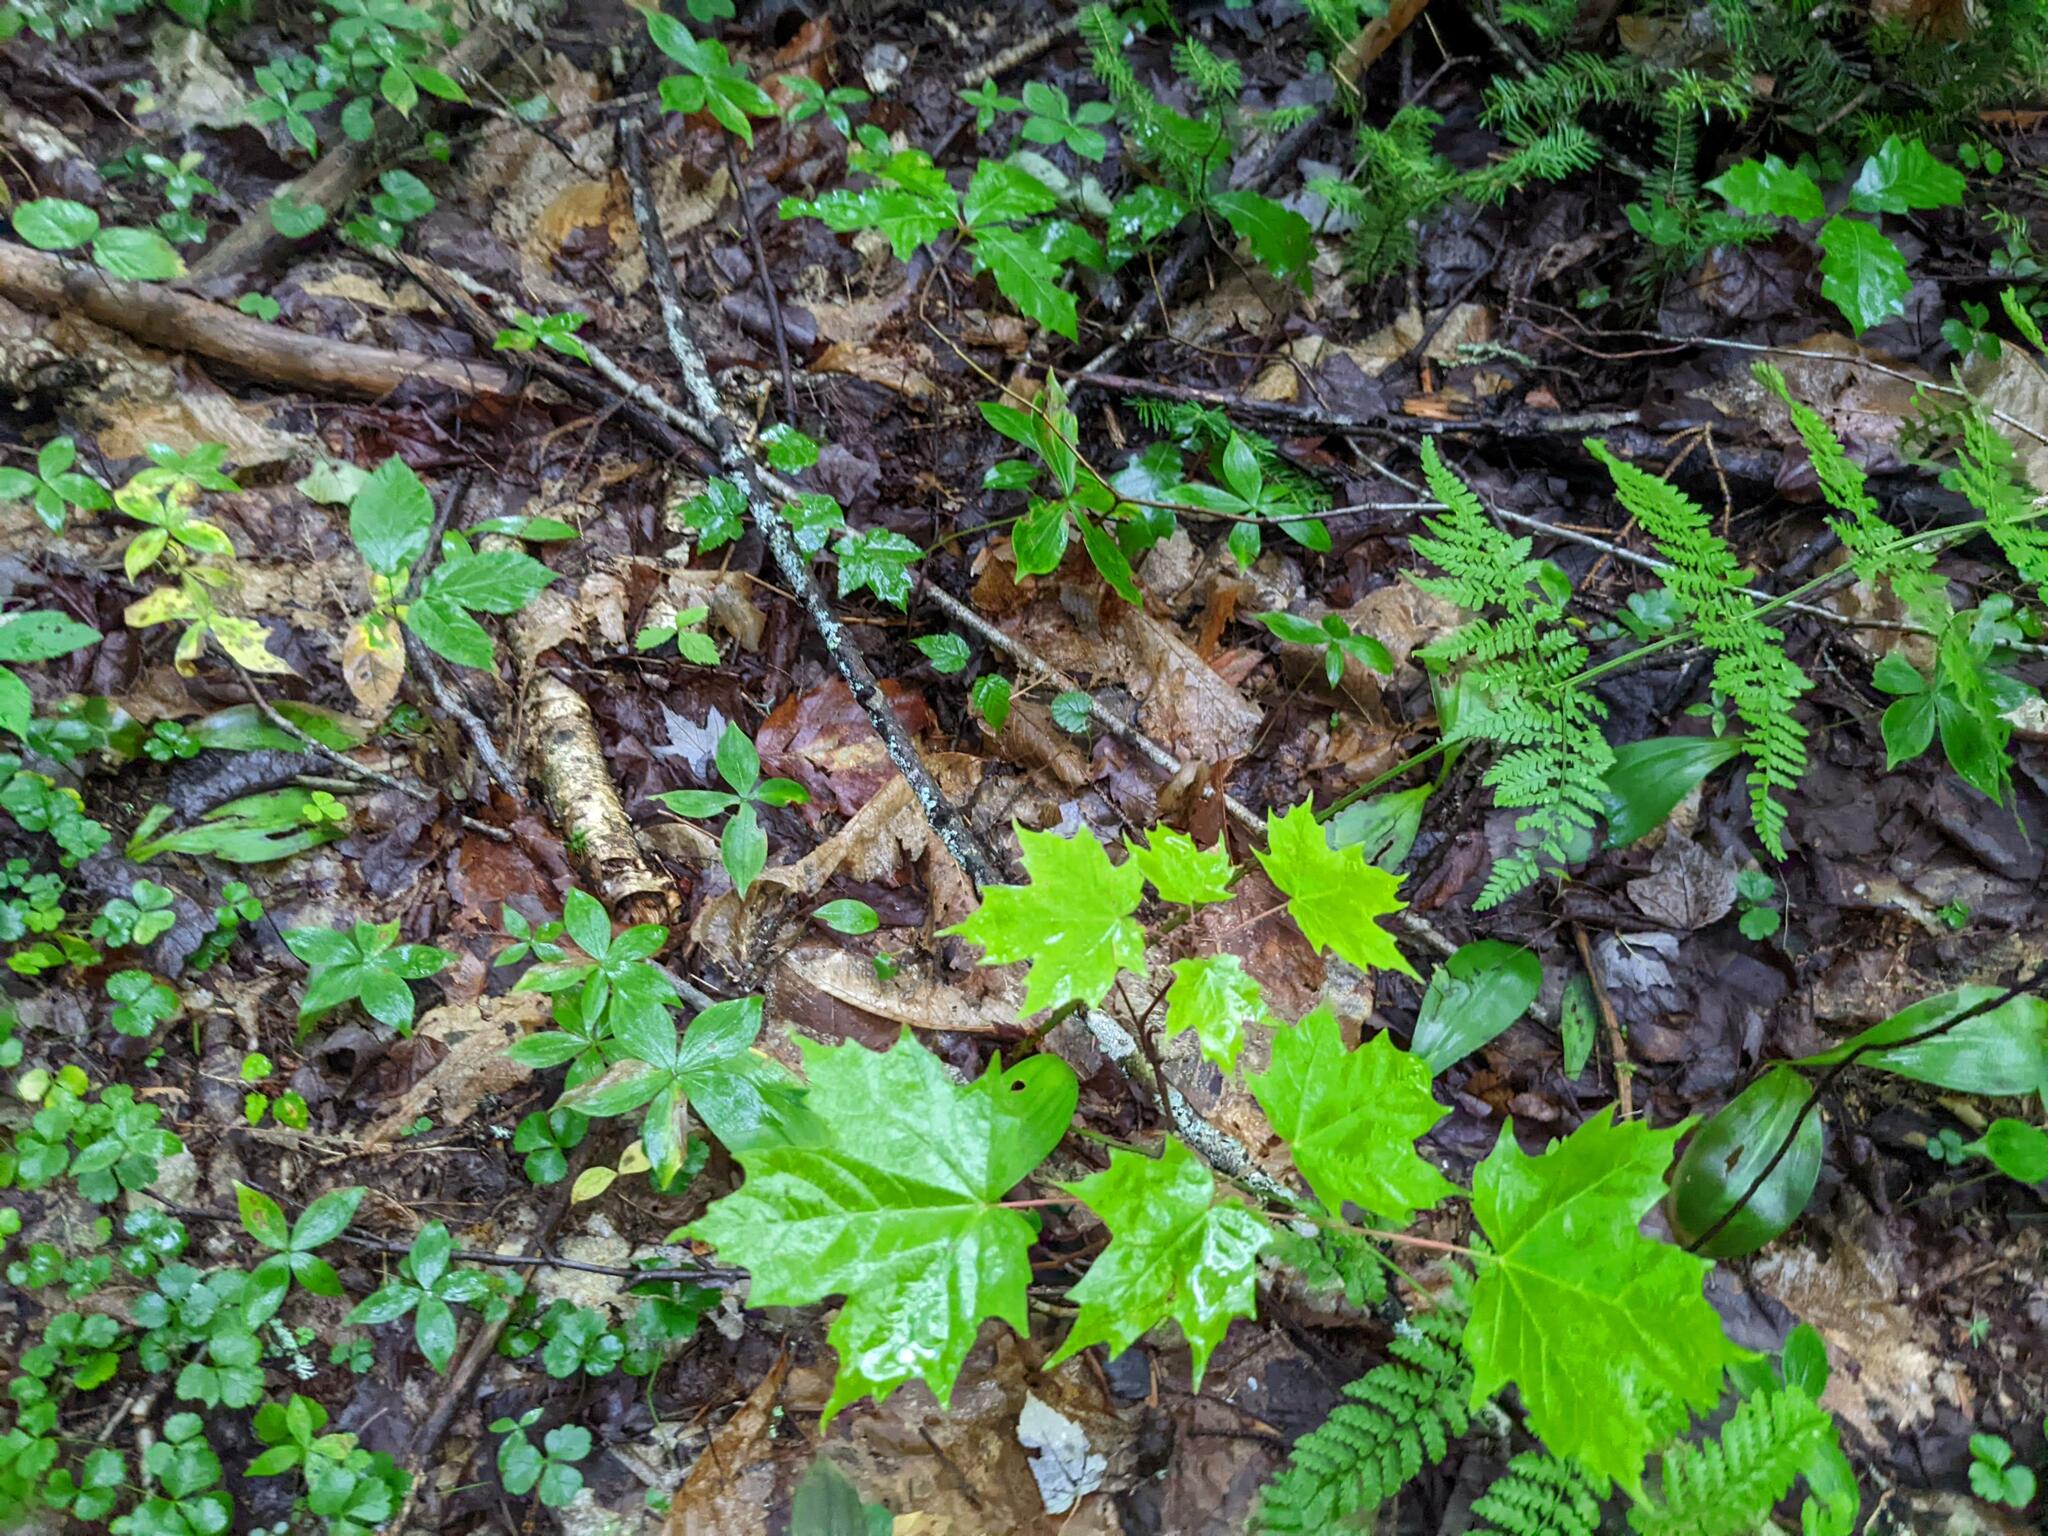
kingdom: Plantae
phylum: Tracheophyta
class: Magnoliopsida
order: Cornales
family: Cornaceae
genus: Cornus
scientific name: Cornus canadensis
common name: Creeping dogwood
